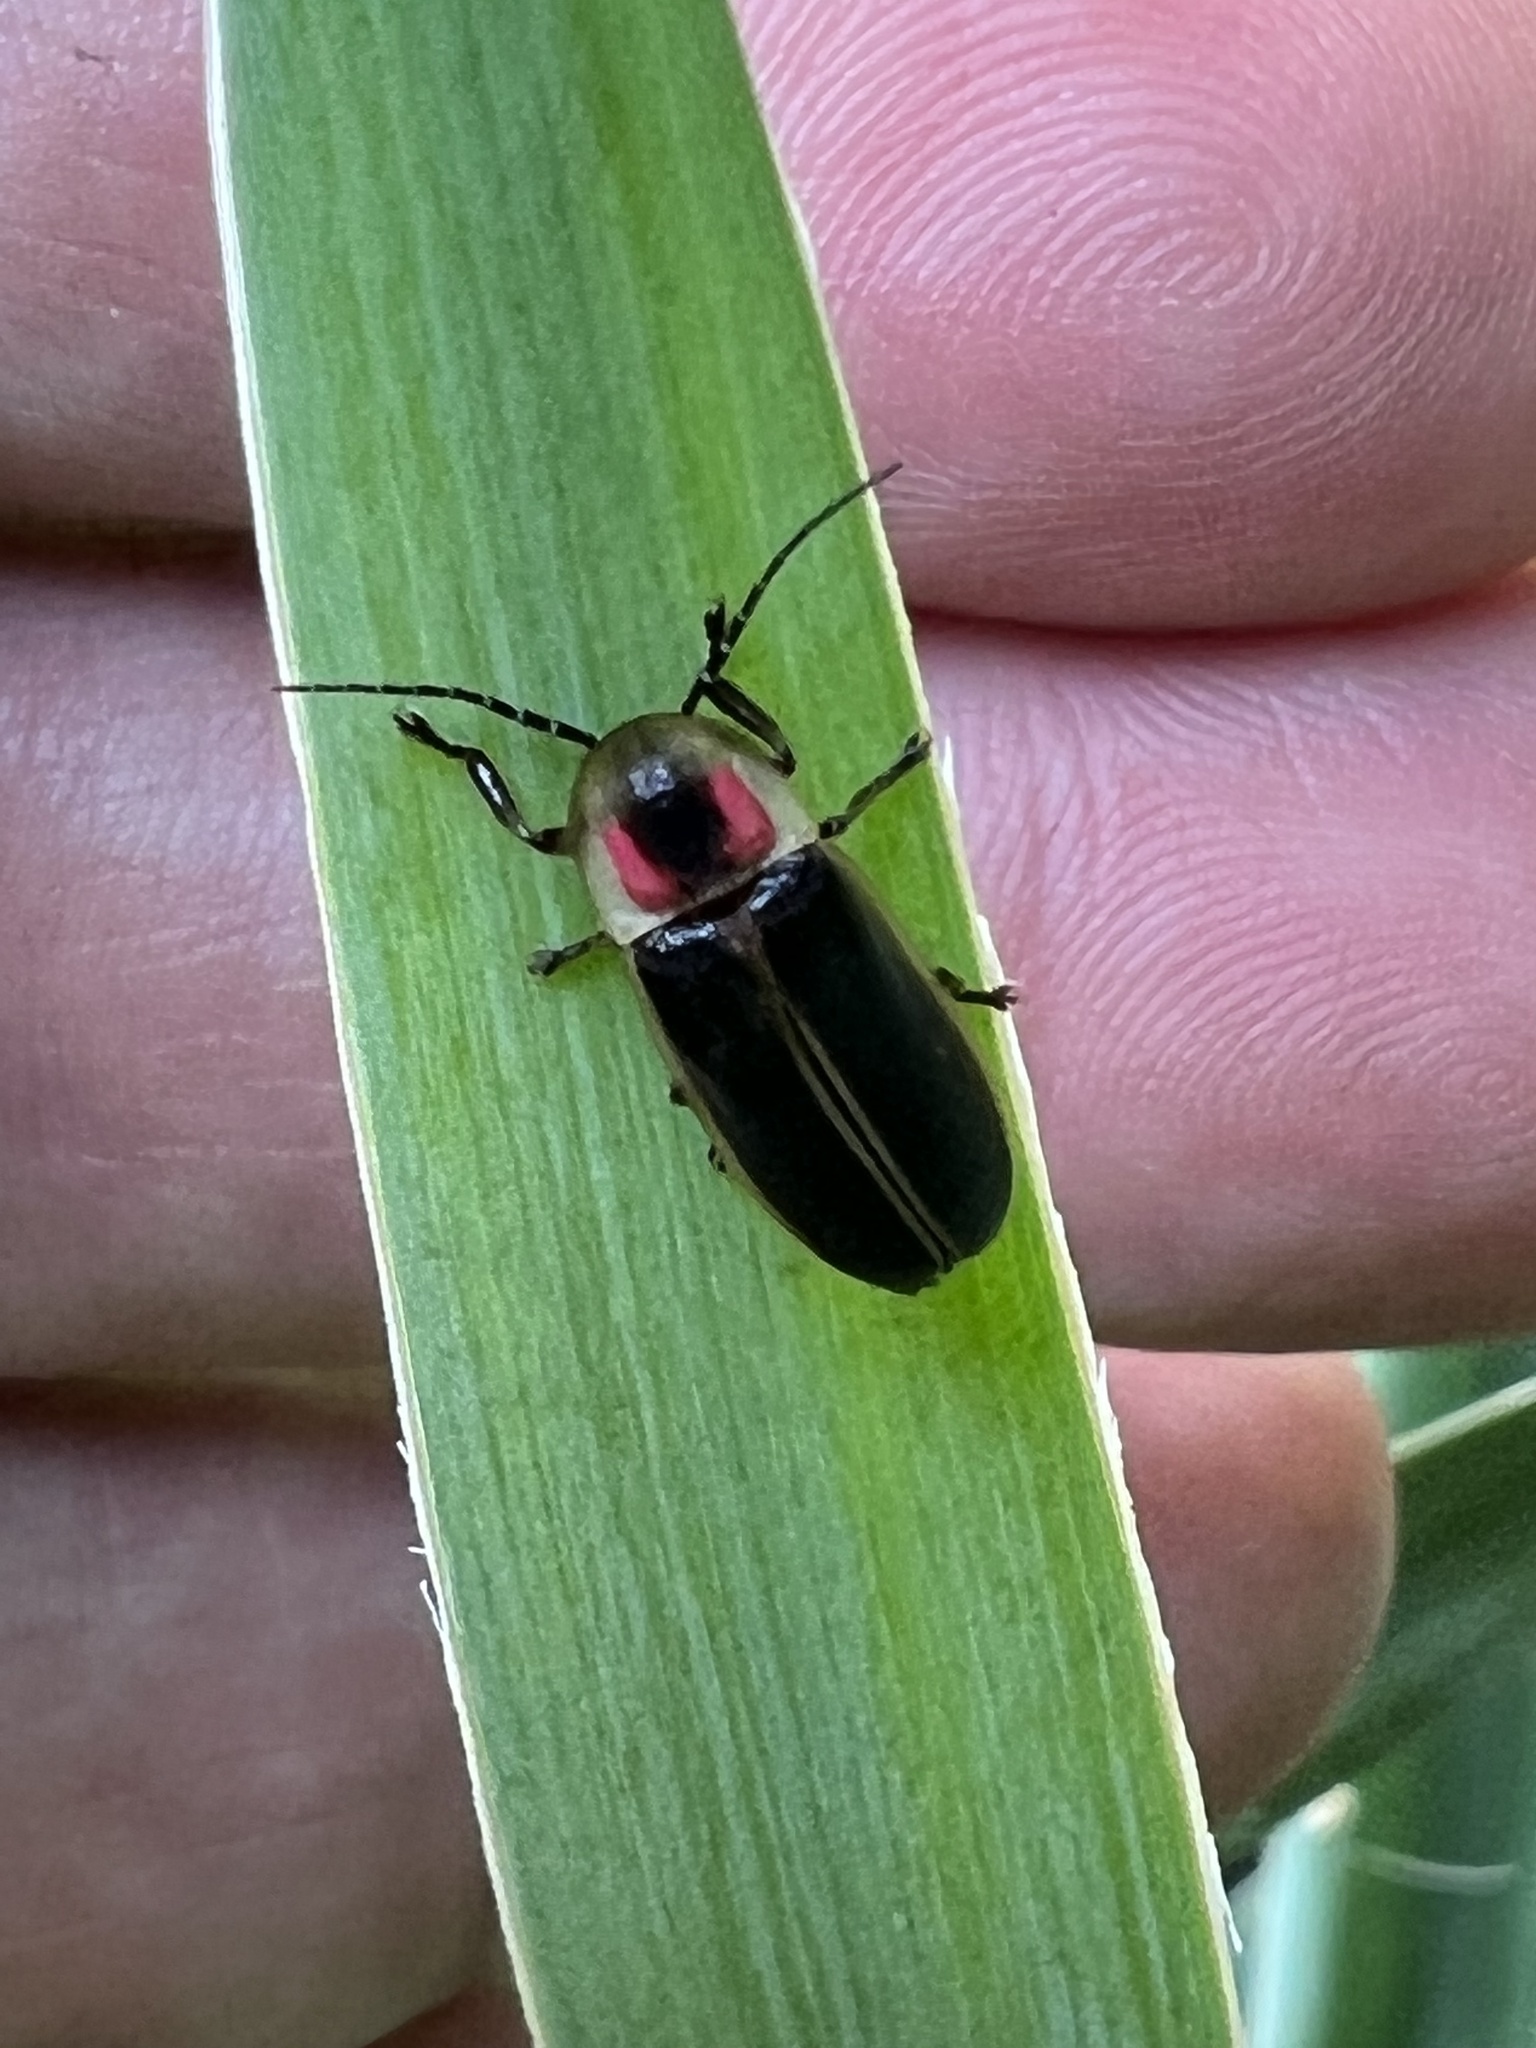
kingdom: Animalia
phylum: Arthropoda
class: Insecta
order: Coleoptera
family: Lampyridae
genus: Photinus
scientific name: Photinus pyralis
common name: Big dipper firefly
